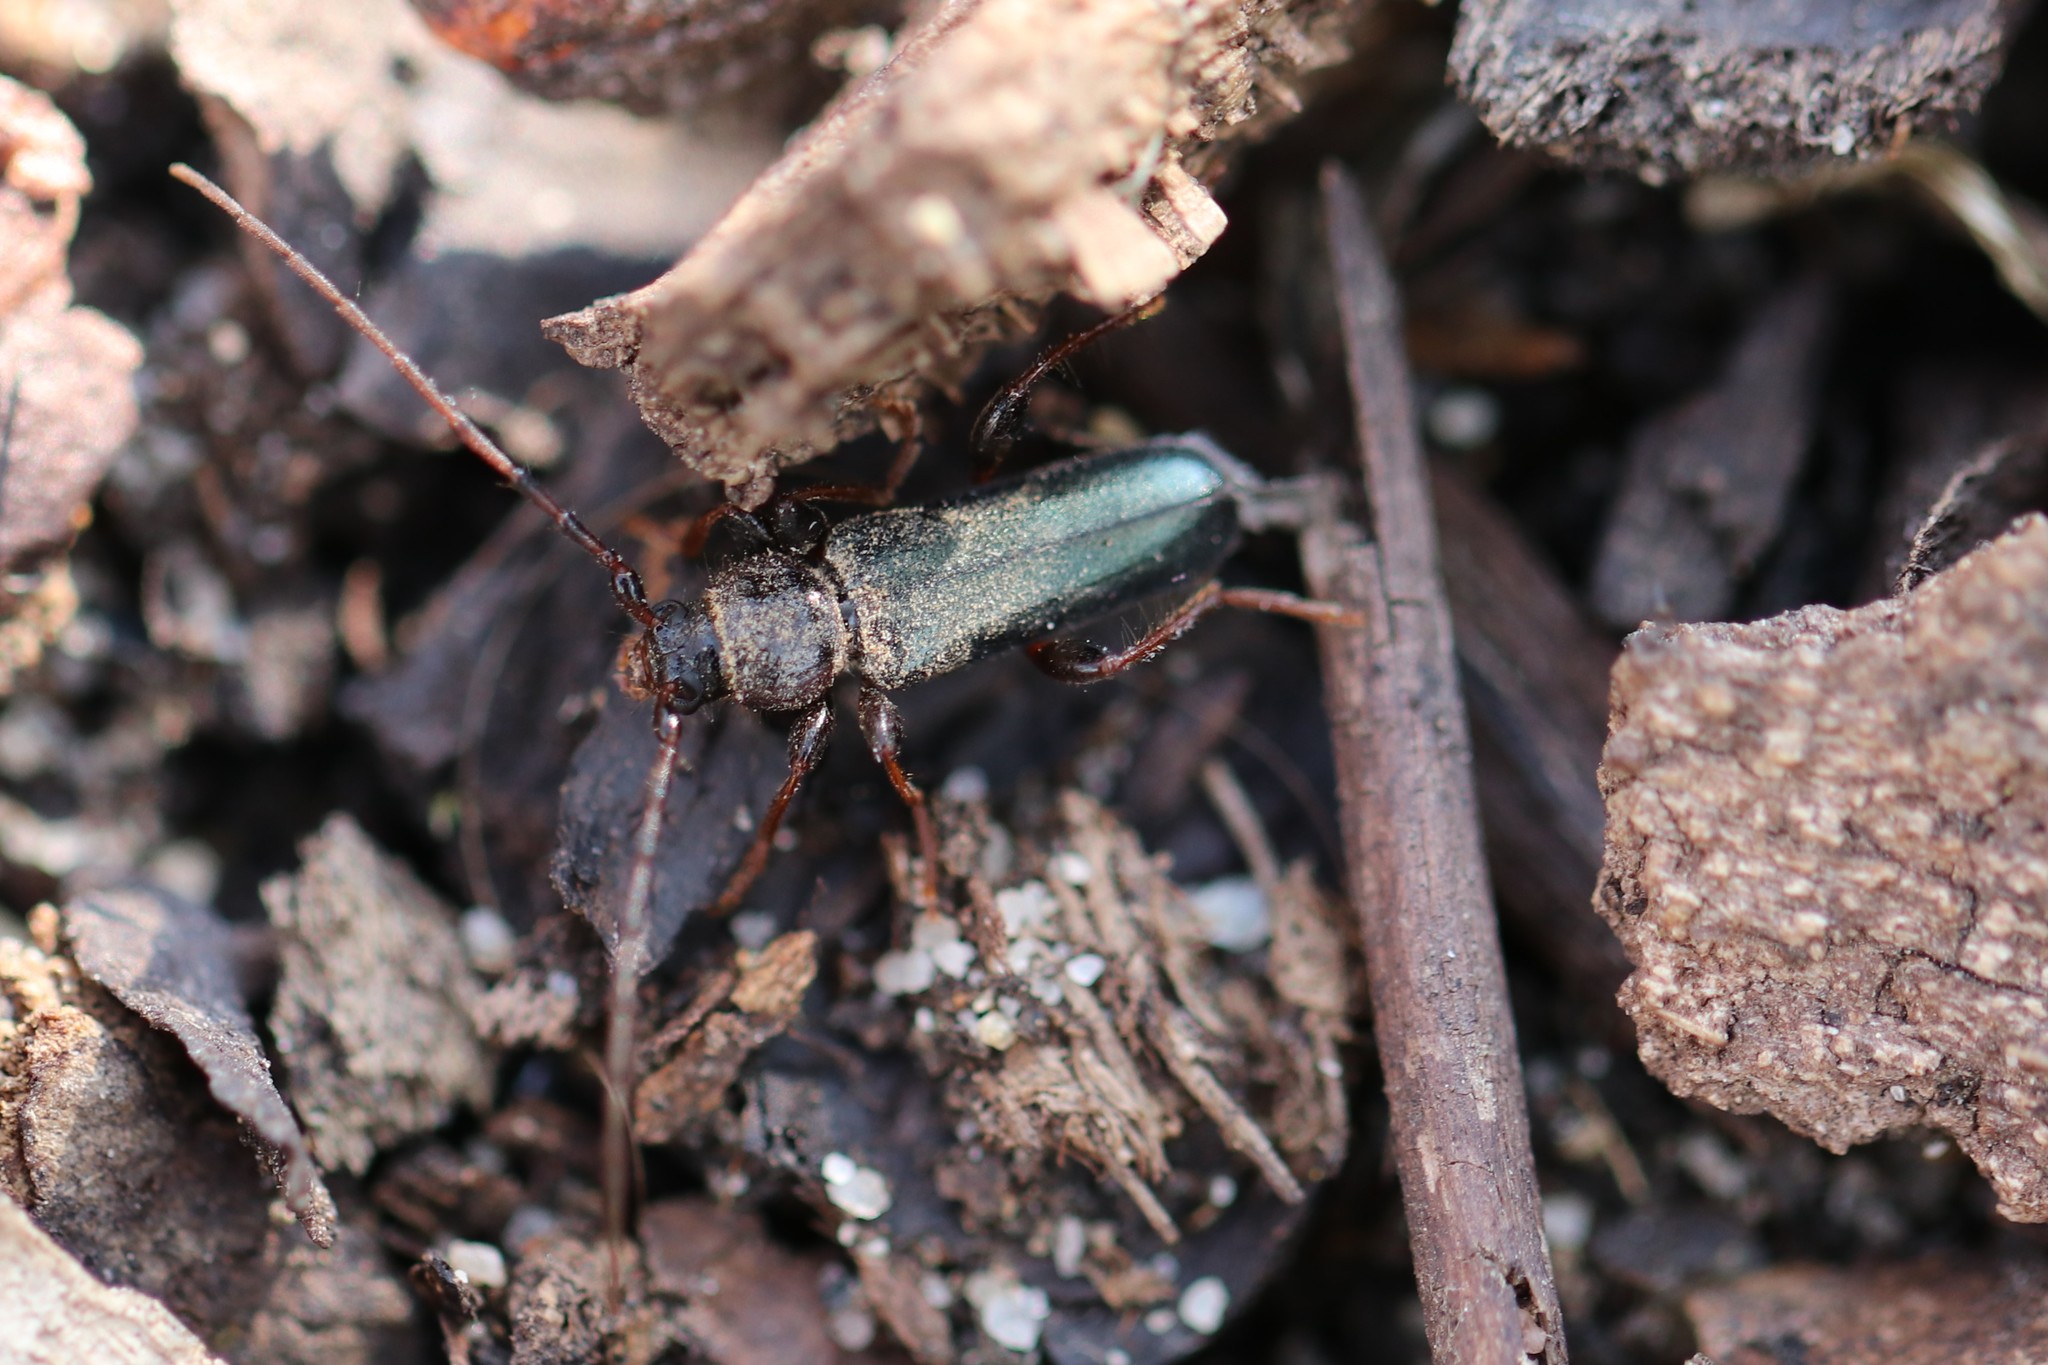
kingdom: Animalia
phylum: Arthropoda
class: Insecta
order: Coleoptera
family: Cerambycidae
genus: Phymatodes
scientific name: Phymatodes testaceus
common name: Long-horned beetle
